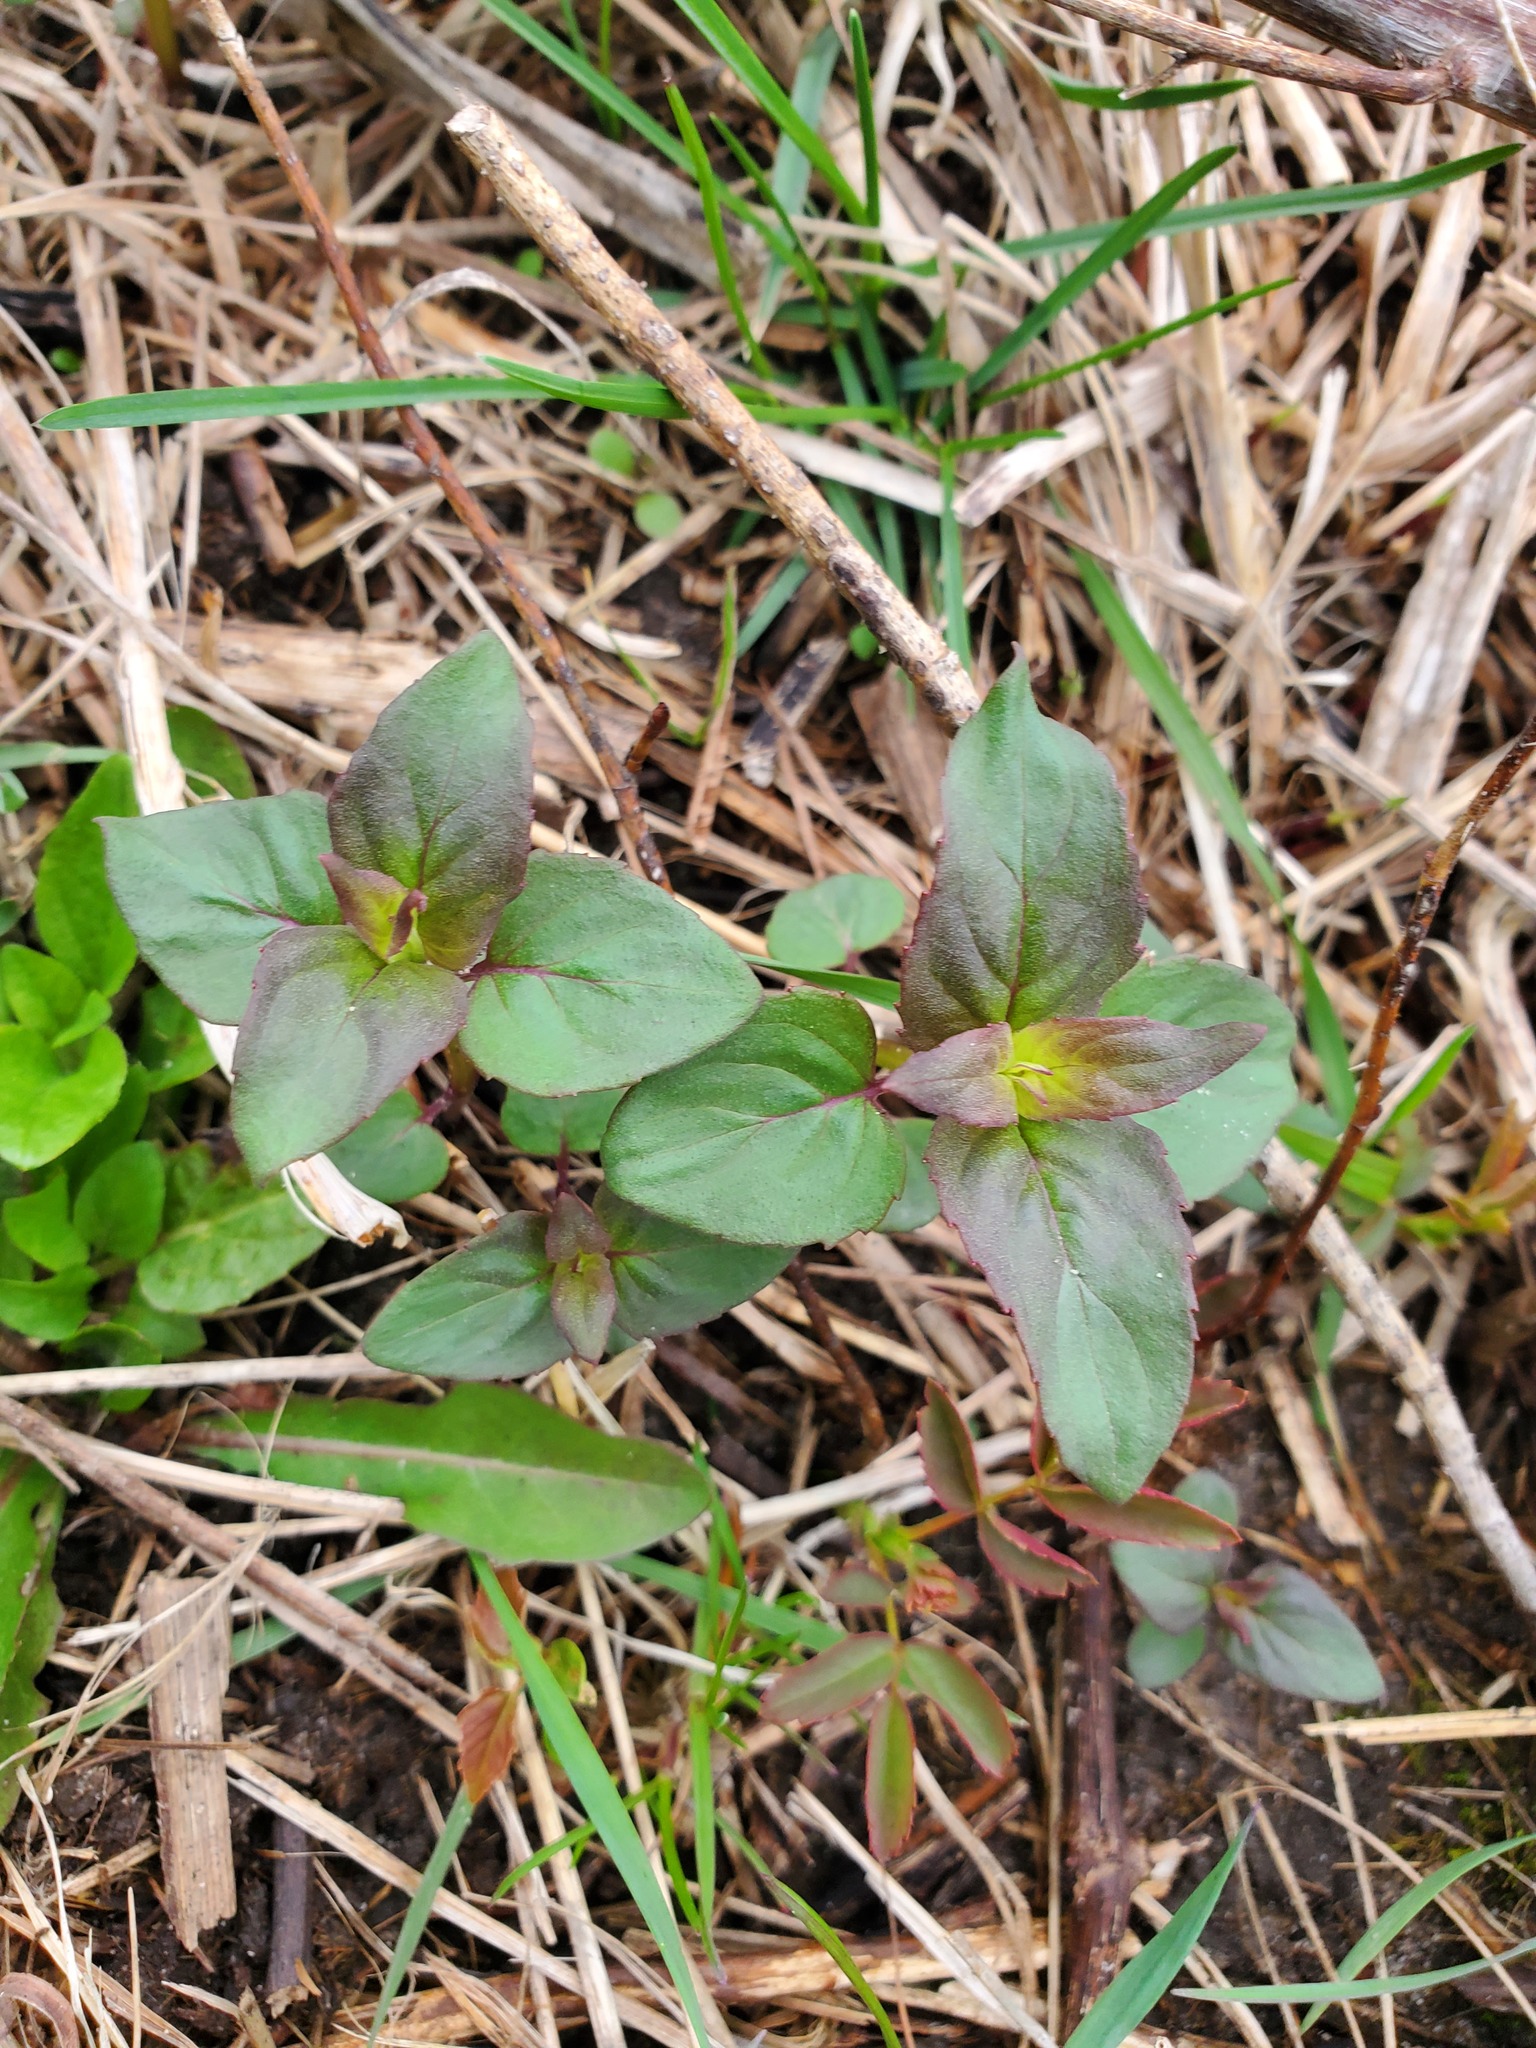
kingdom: Plantae
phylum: Tracheophyta
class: Magnoliopsida
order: Lamiales
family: Lamiaceae
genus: Monarda
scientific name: Monarda fistulosa
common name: Purple beebalm
